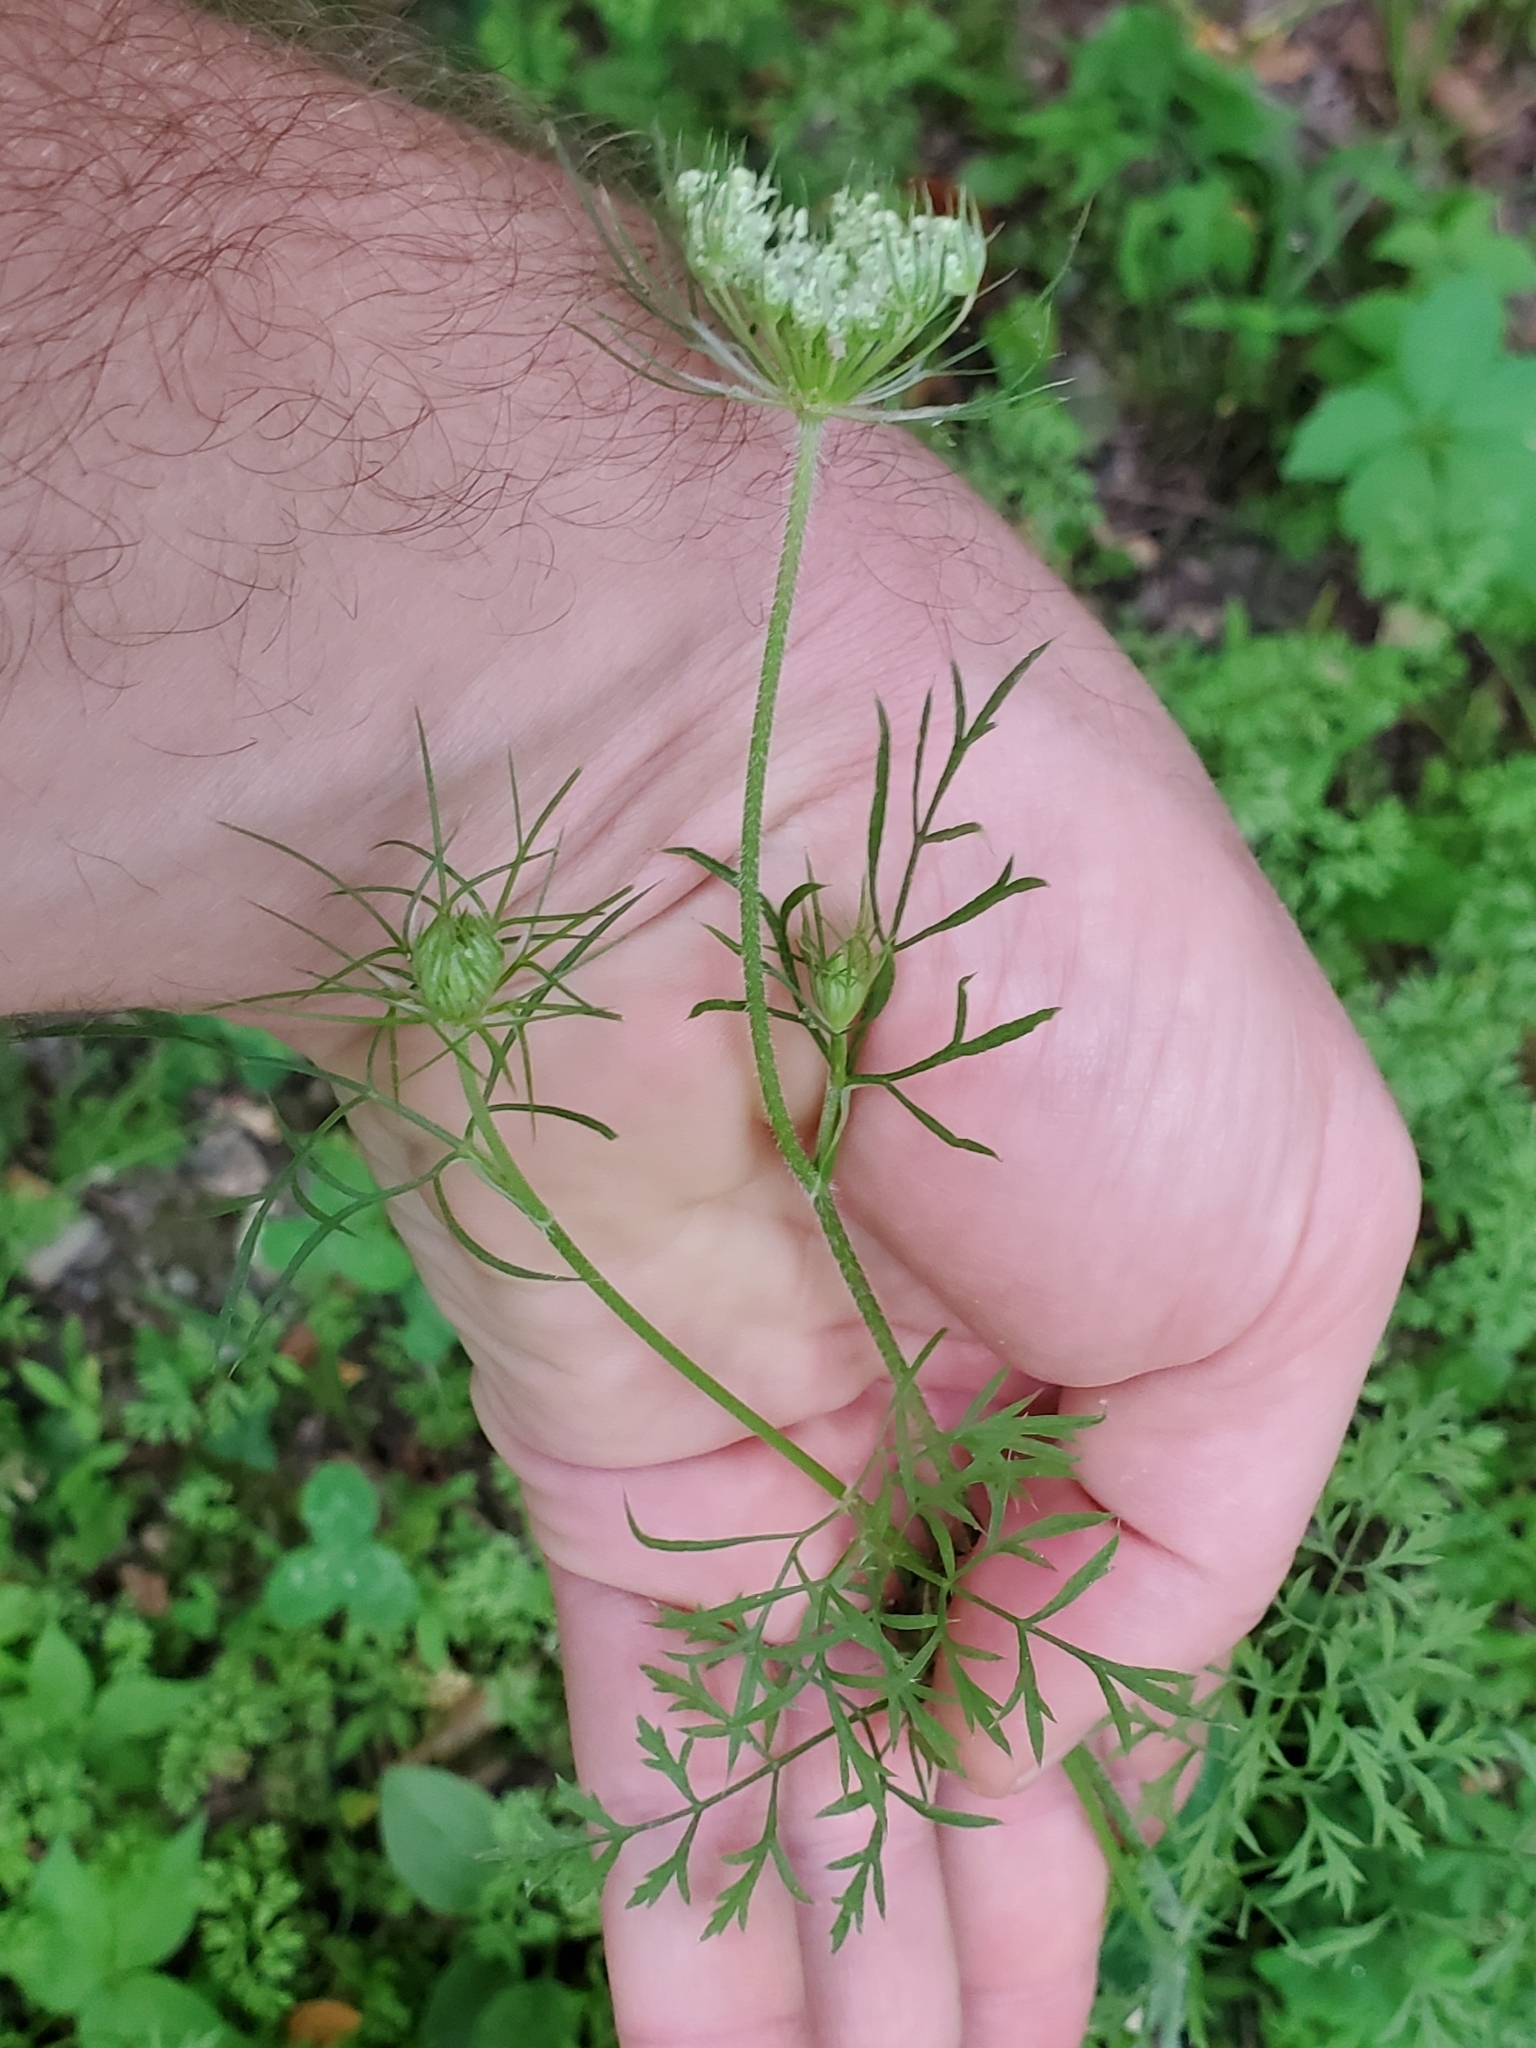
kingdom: Plantae
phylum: Tracheophyta
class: Magnoliopsida
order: Apiales
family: Apiaceae
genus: Daucus
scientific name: Daucus carota
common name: Wild carrot
